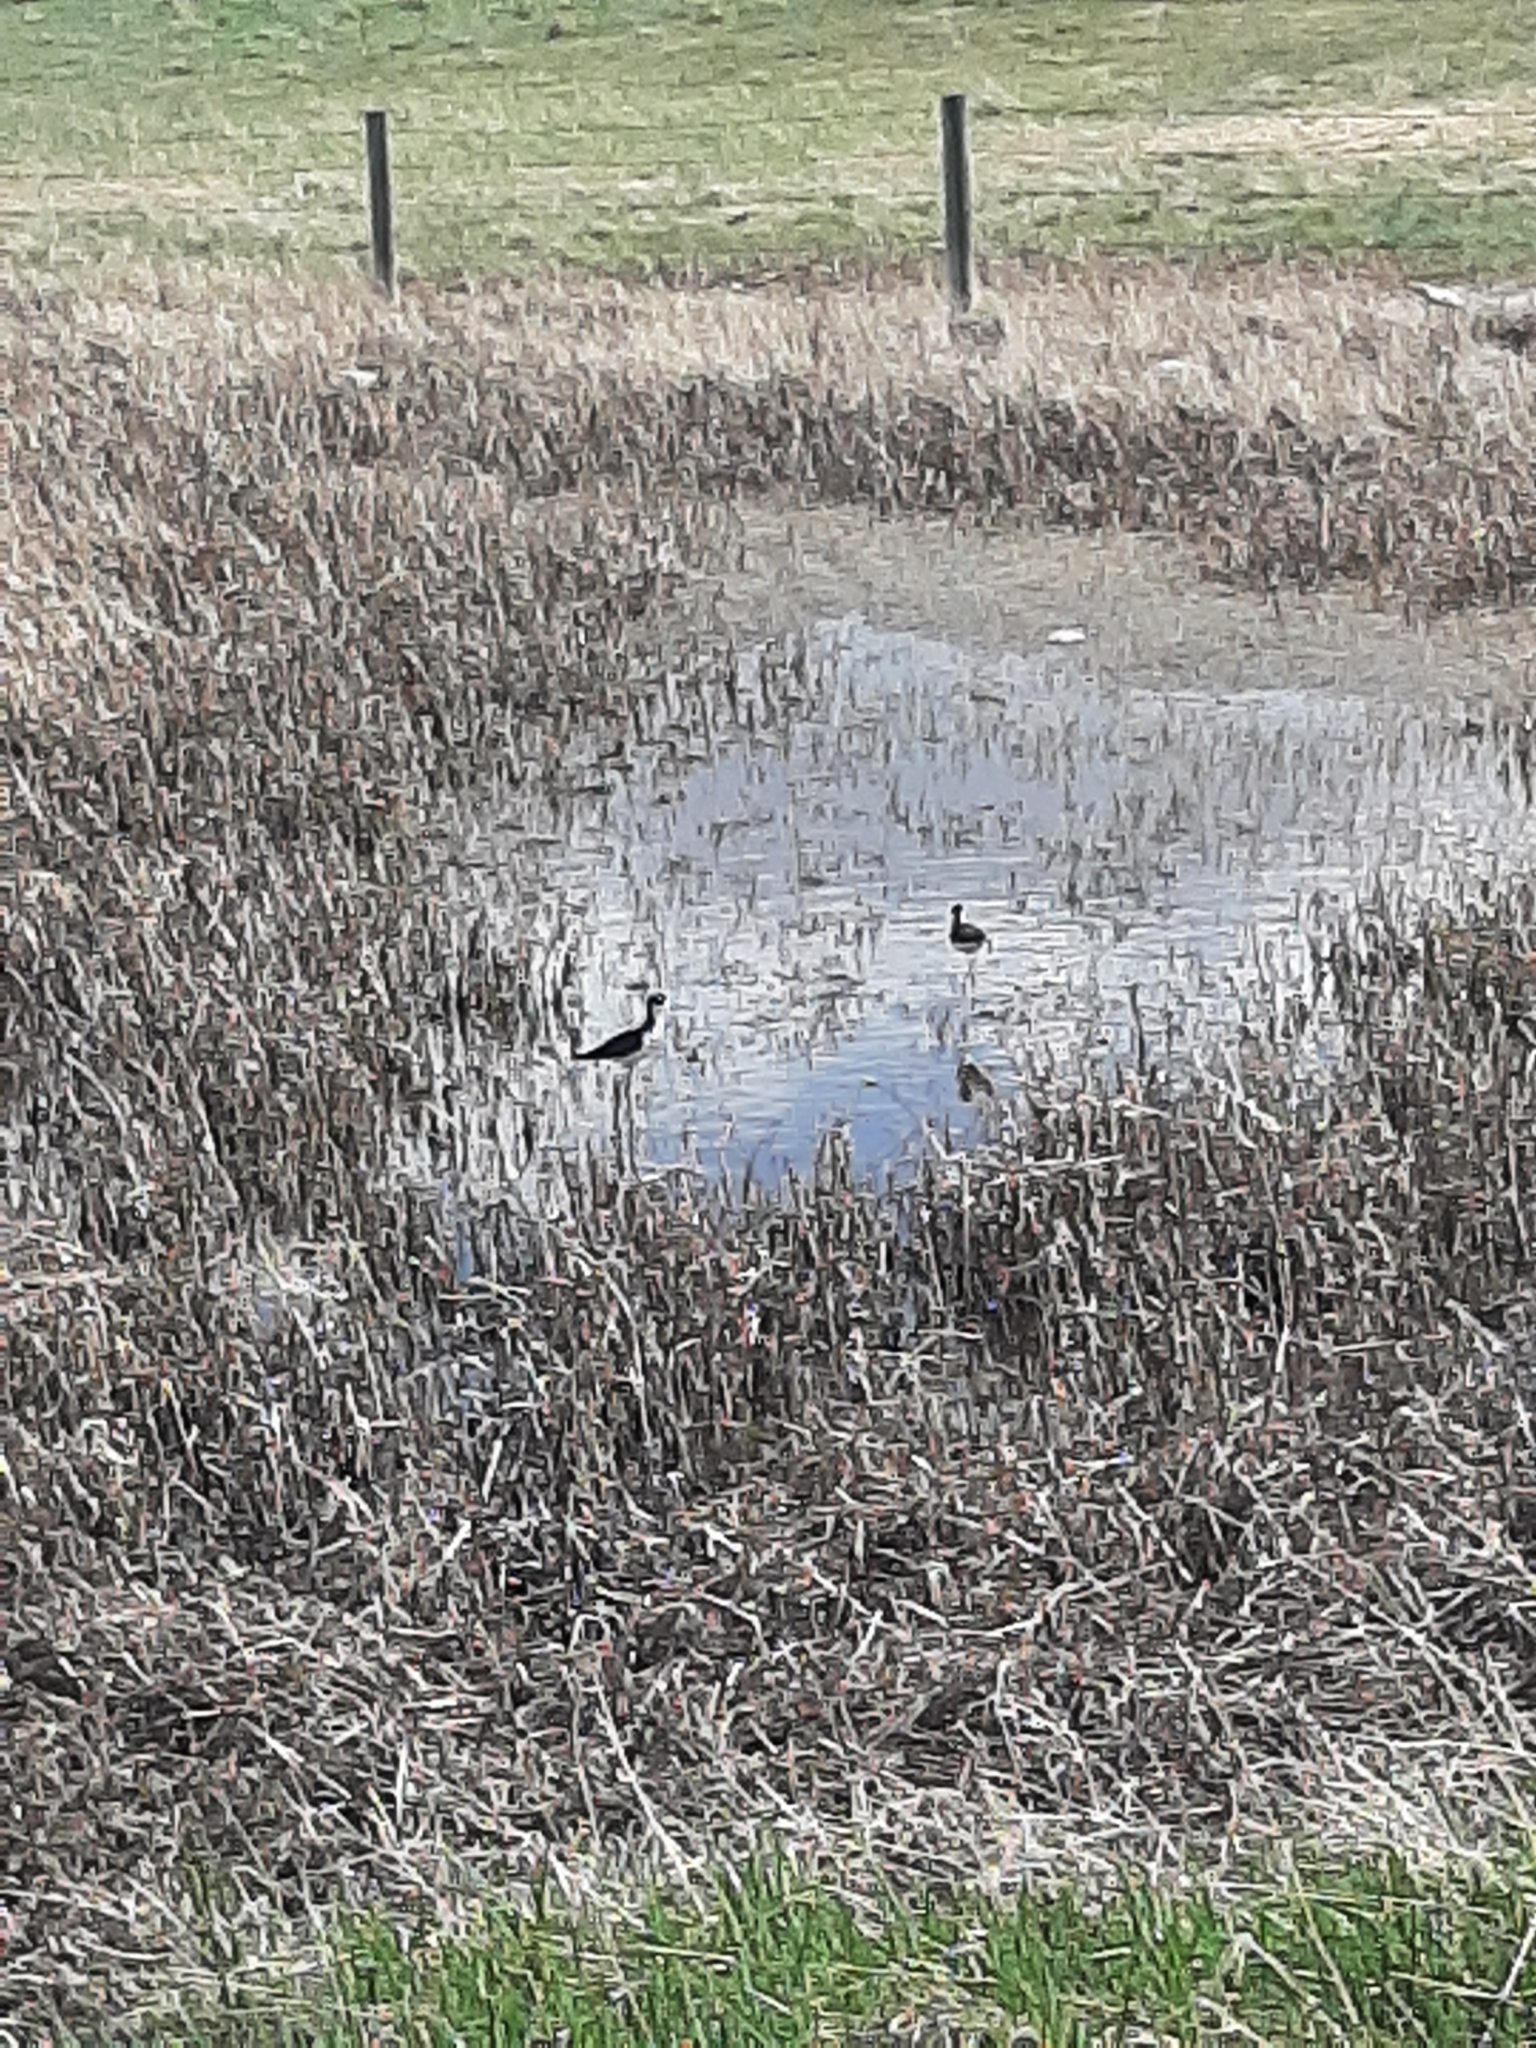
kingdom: Animalia
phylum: Chordata
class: Aves
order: Charadriiformes
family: Recurvirostridae
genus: Himantopus
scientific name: Himantopus mexicanus
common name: Black-necked stilt
